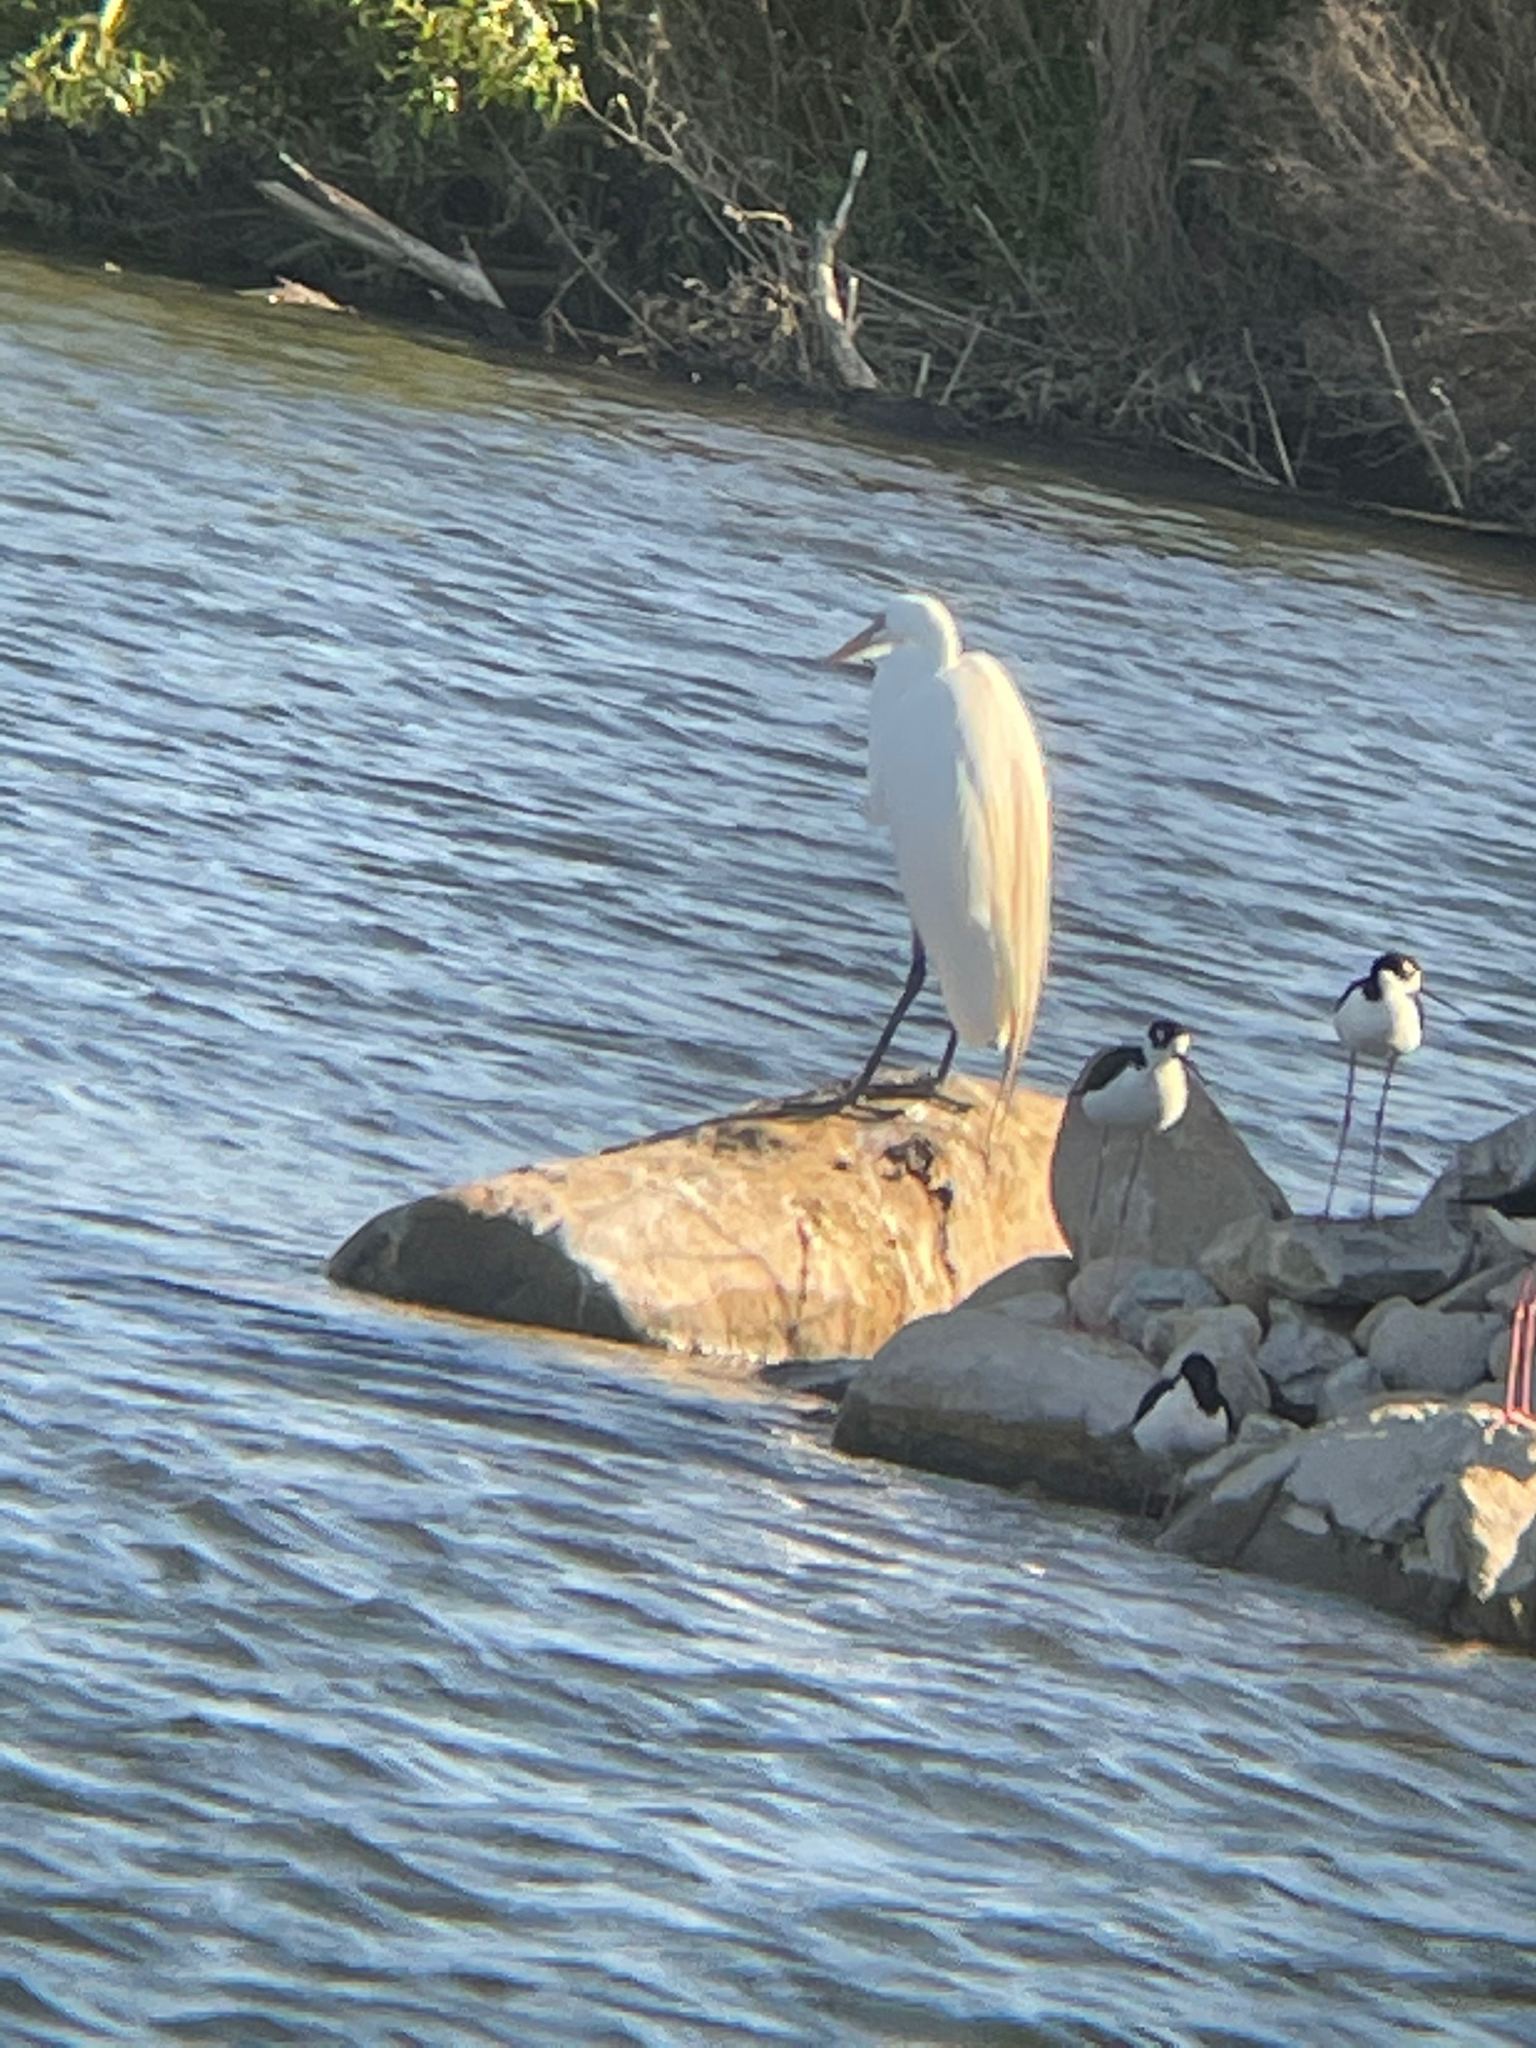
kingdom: Animalia
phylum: Chordata
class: Aves
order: Pelecaniformes
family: Ardeidae
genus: Ardea
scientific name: Ardea alba
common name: Great egret
